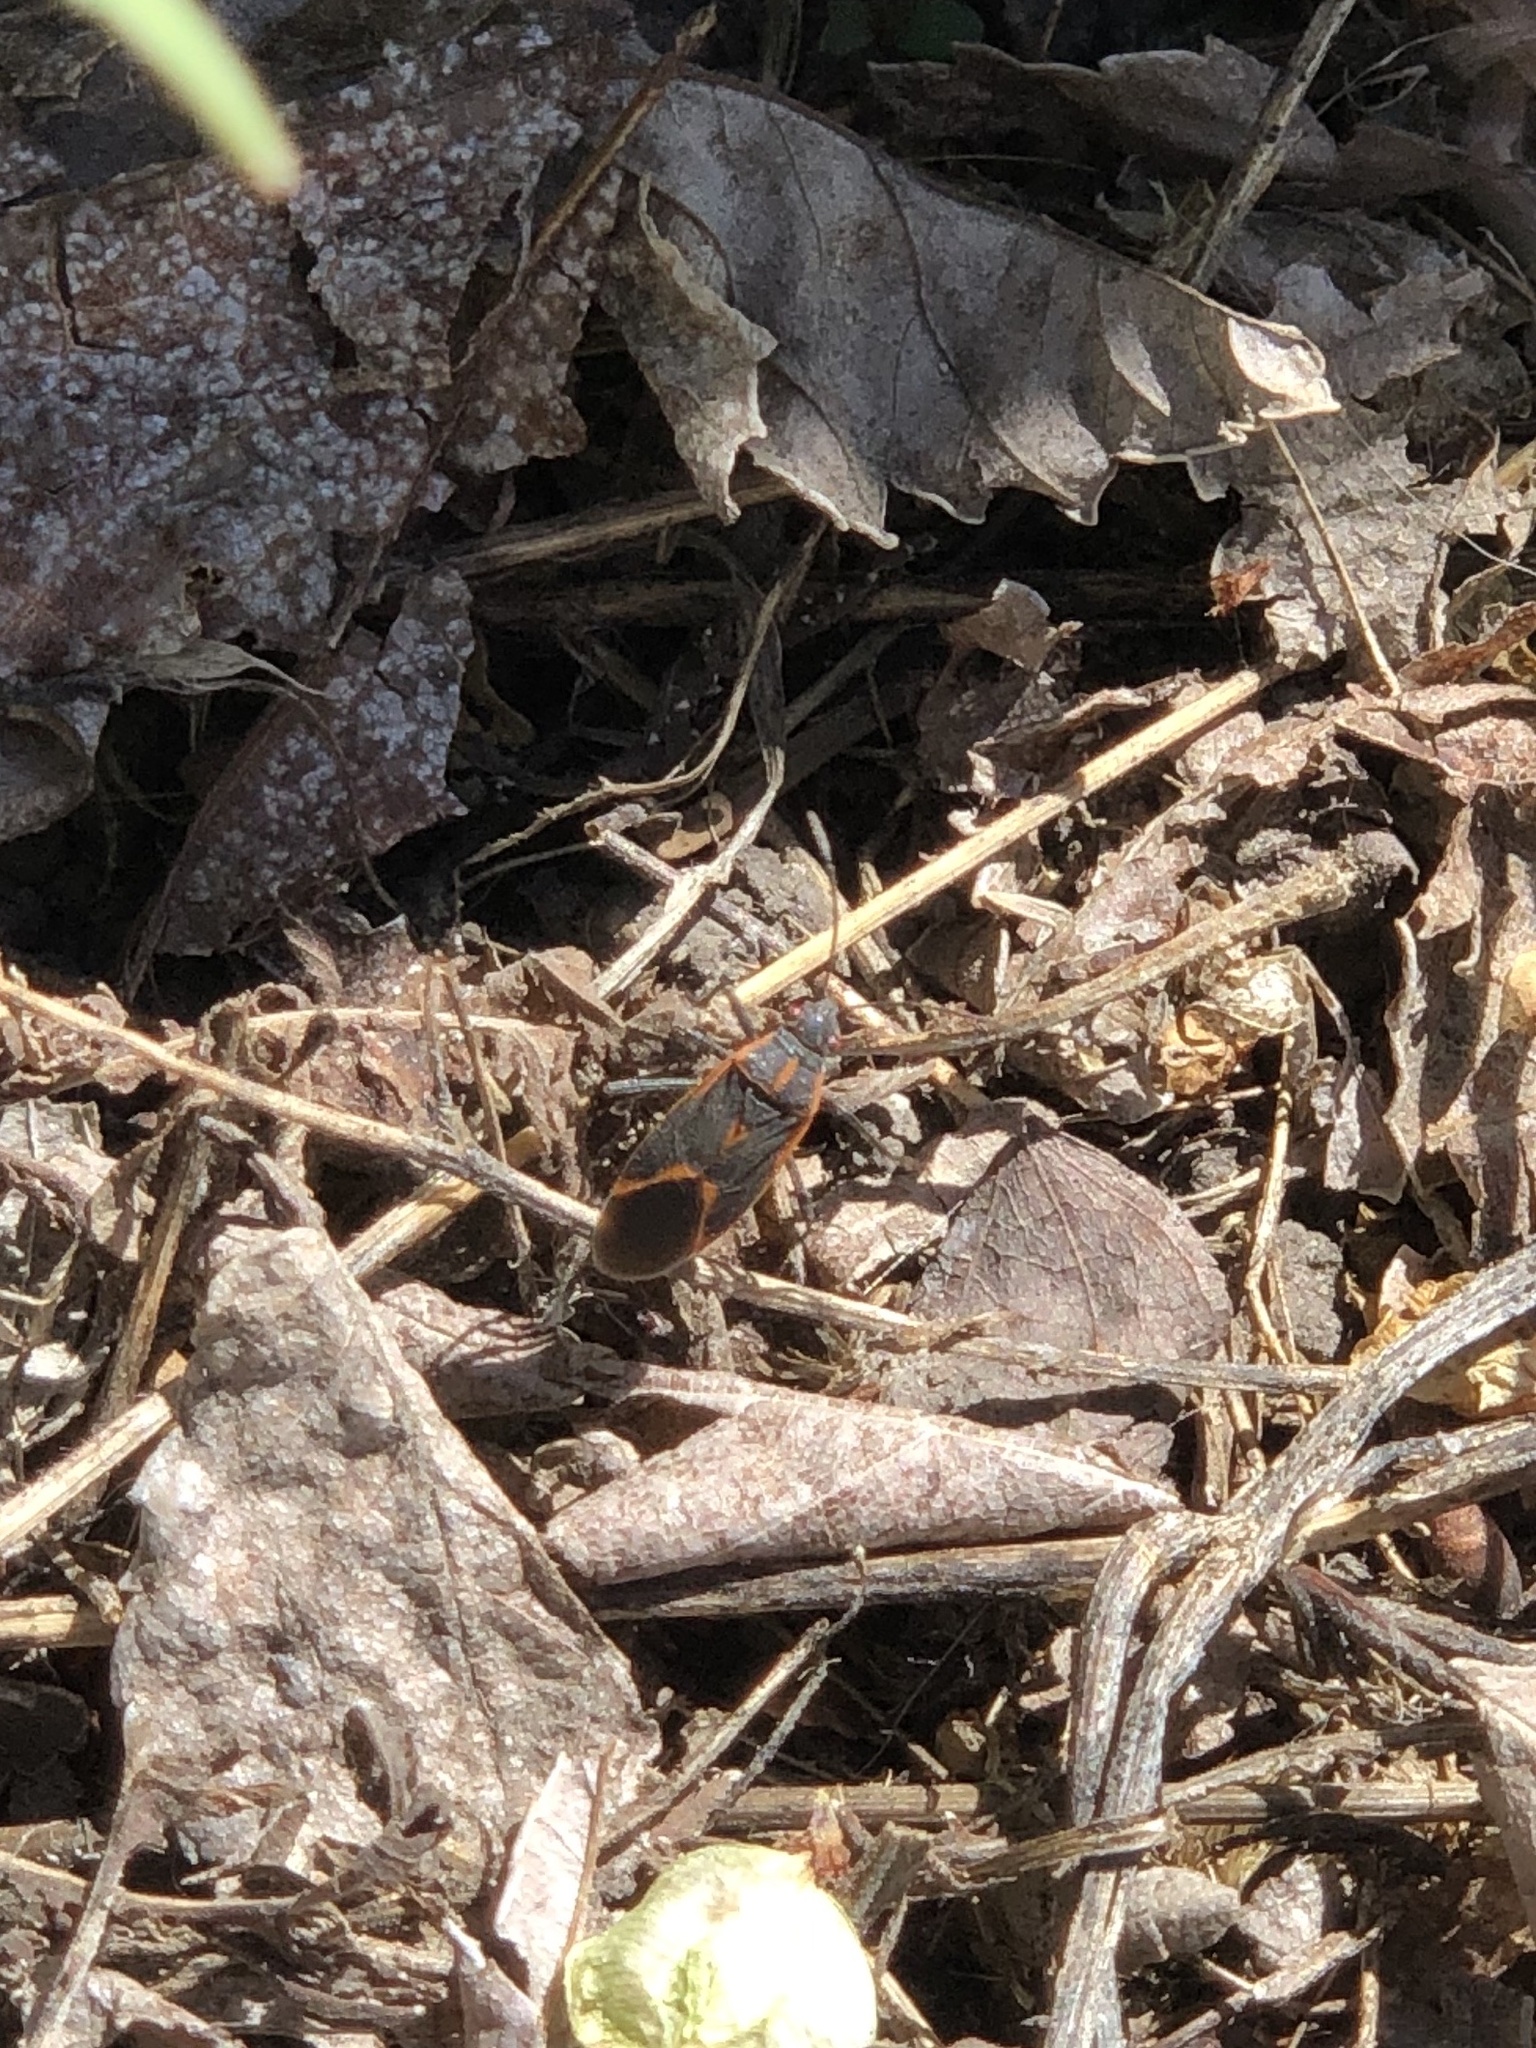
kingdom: Animalia
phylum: Arthropoda
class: Insecta
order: Hemiptera
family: Rhopalidae
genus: Boisea
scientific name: Boisea trivittata
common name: Boxelder bug
